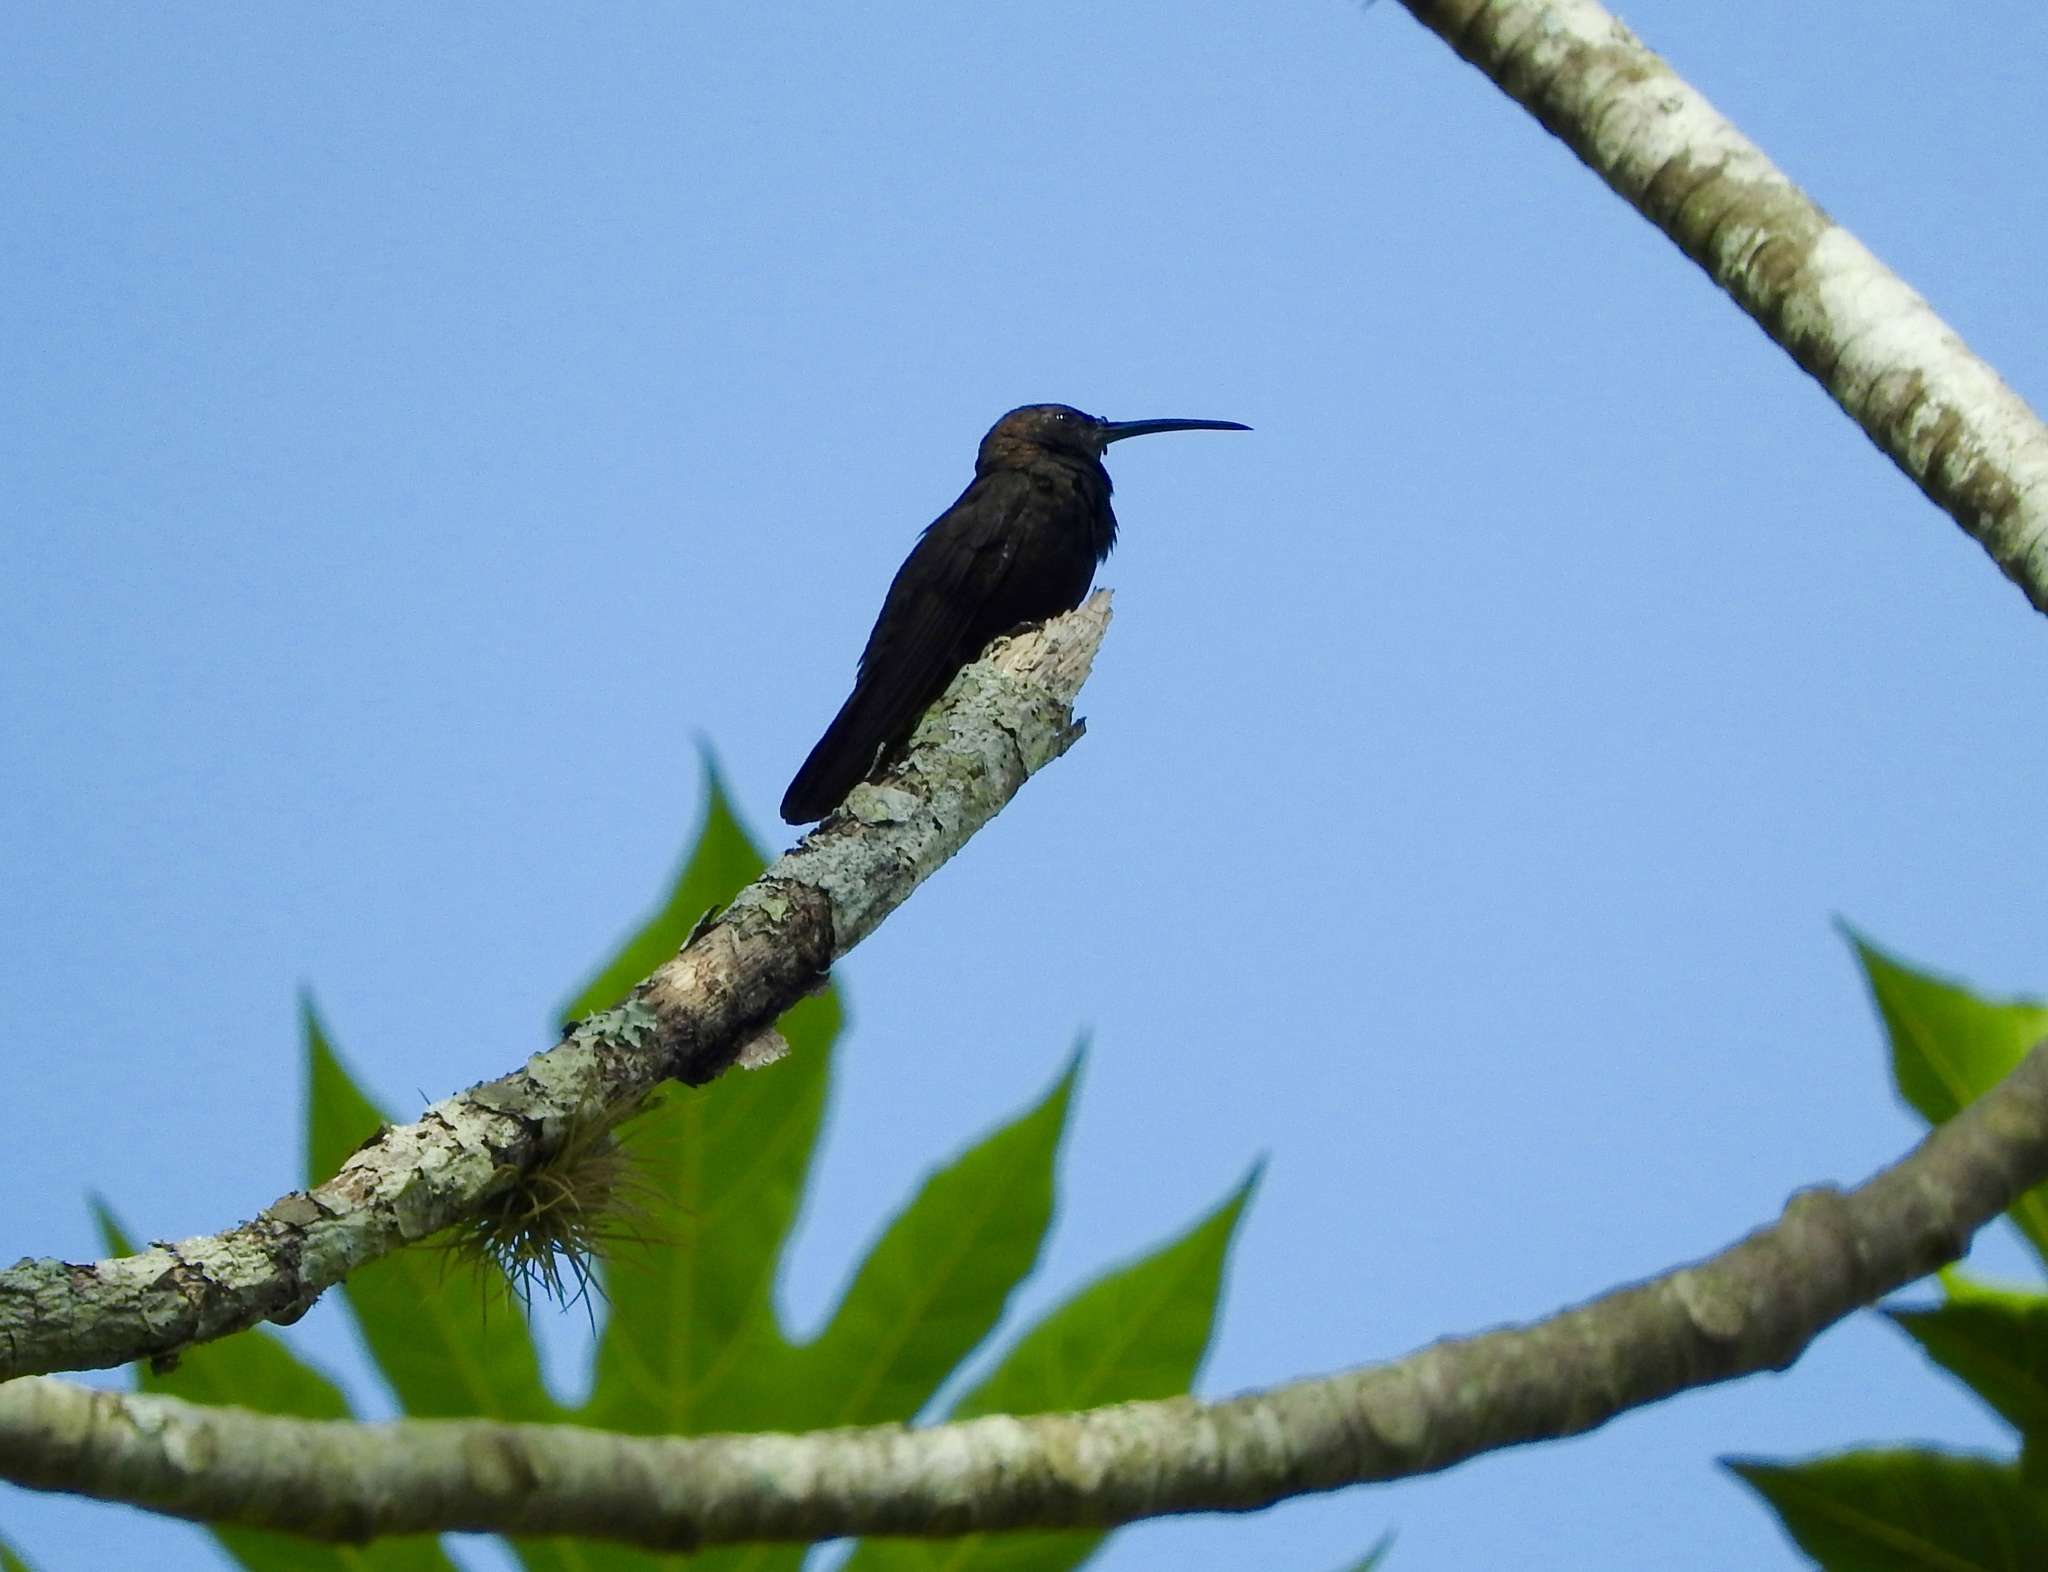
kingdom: Animalia
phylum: Chordata
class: Aves
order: Apodiformes
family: Trochilidae
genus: Anthracothorax
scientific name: Anthracothorax mango
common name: Jamaican mango
